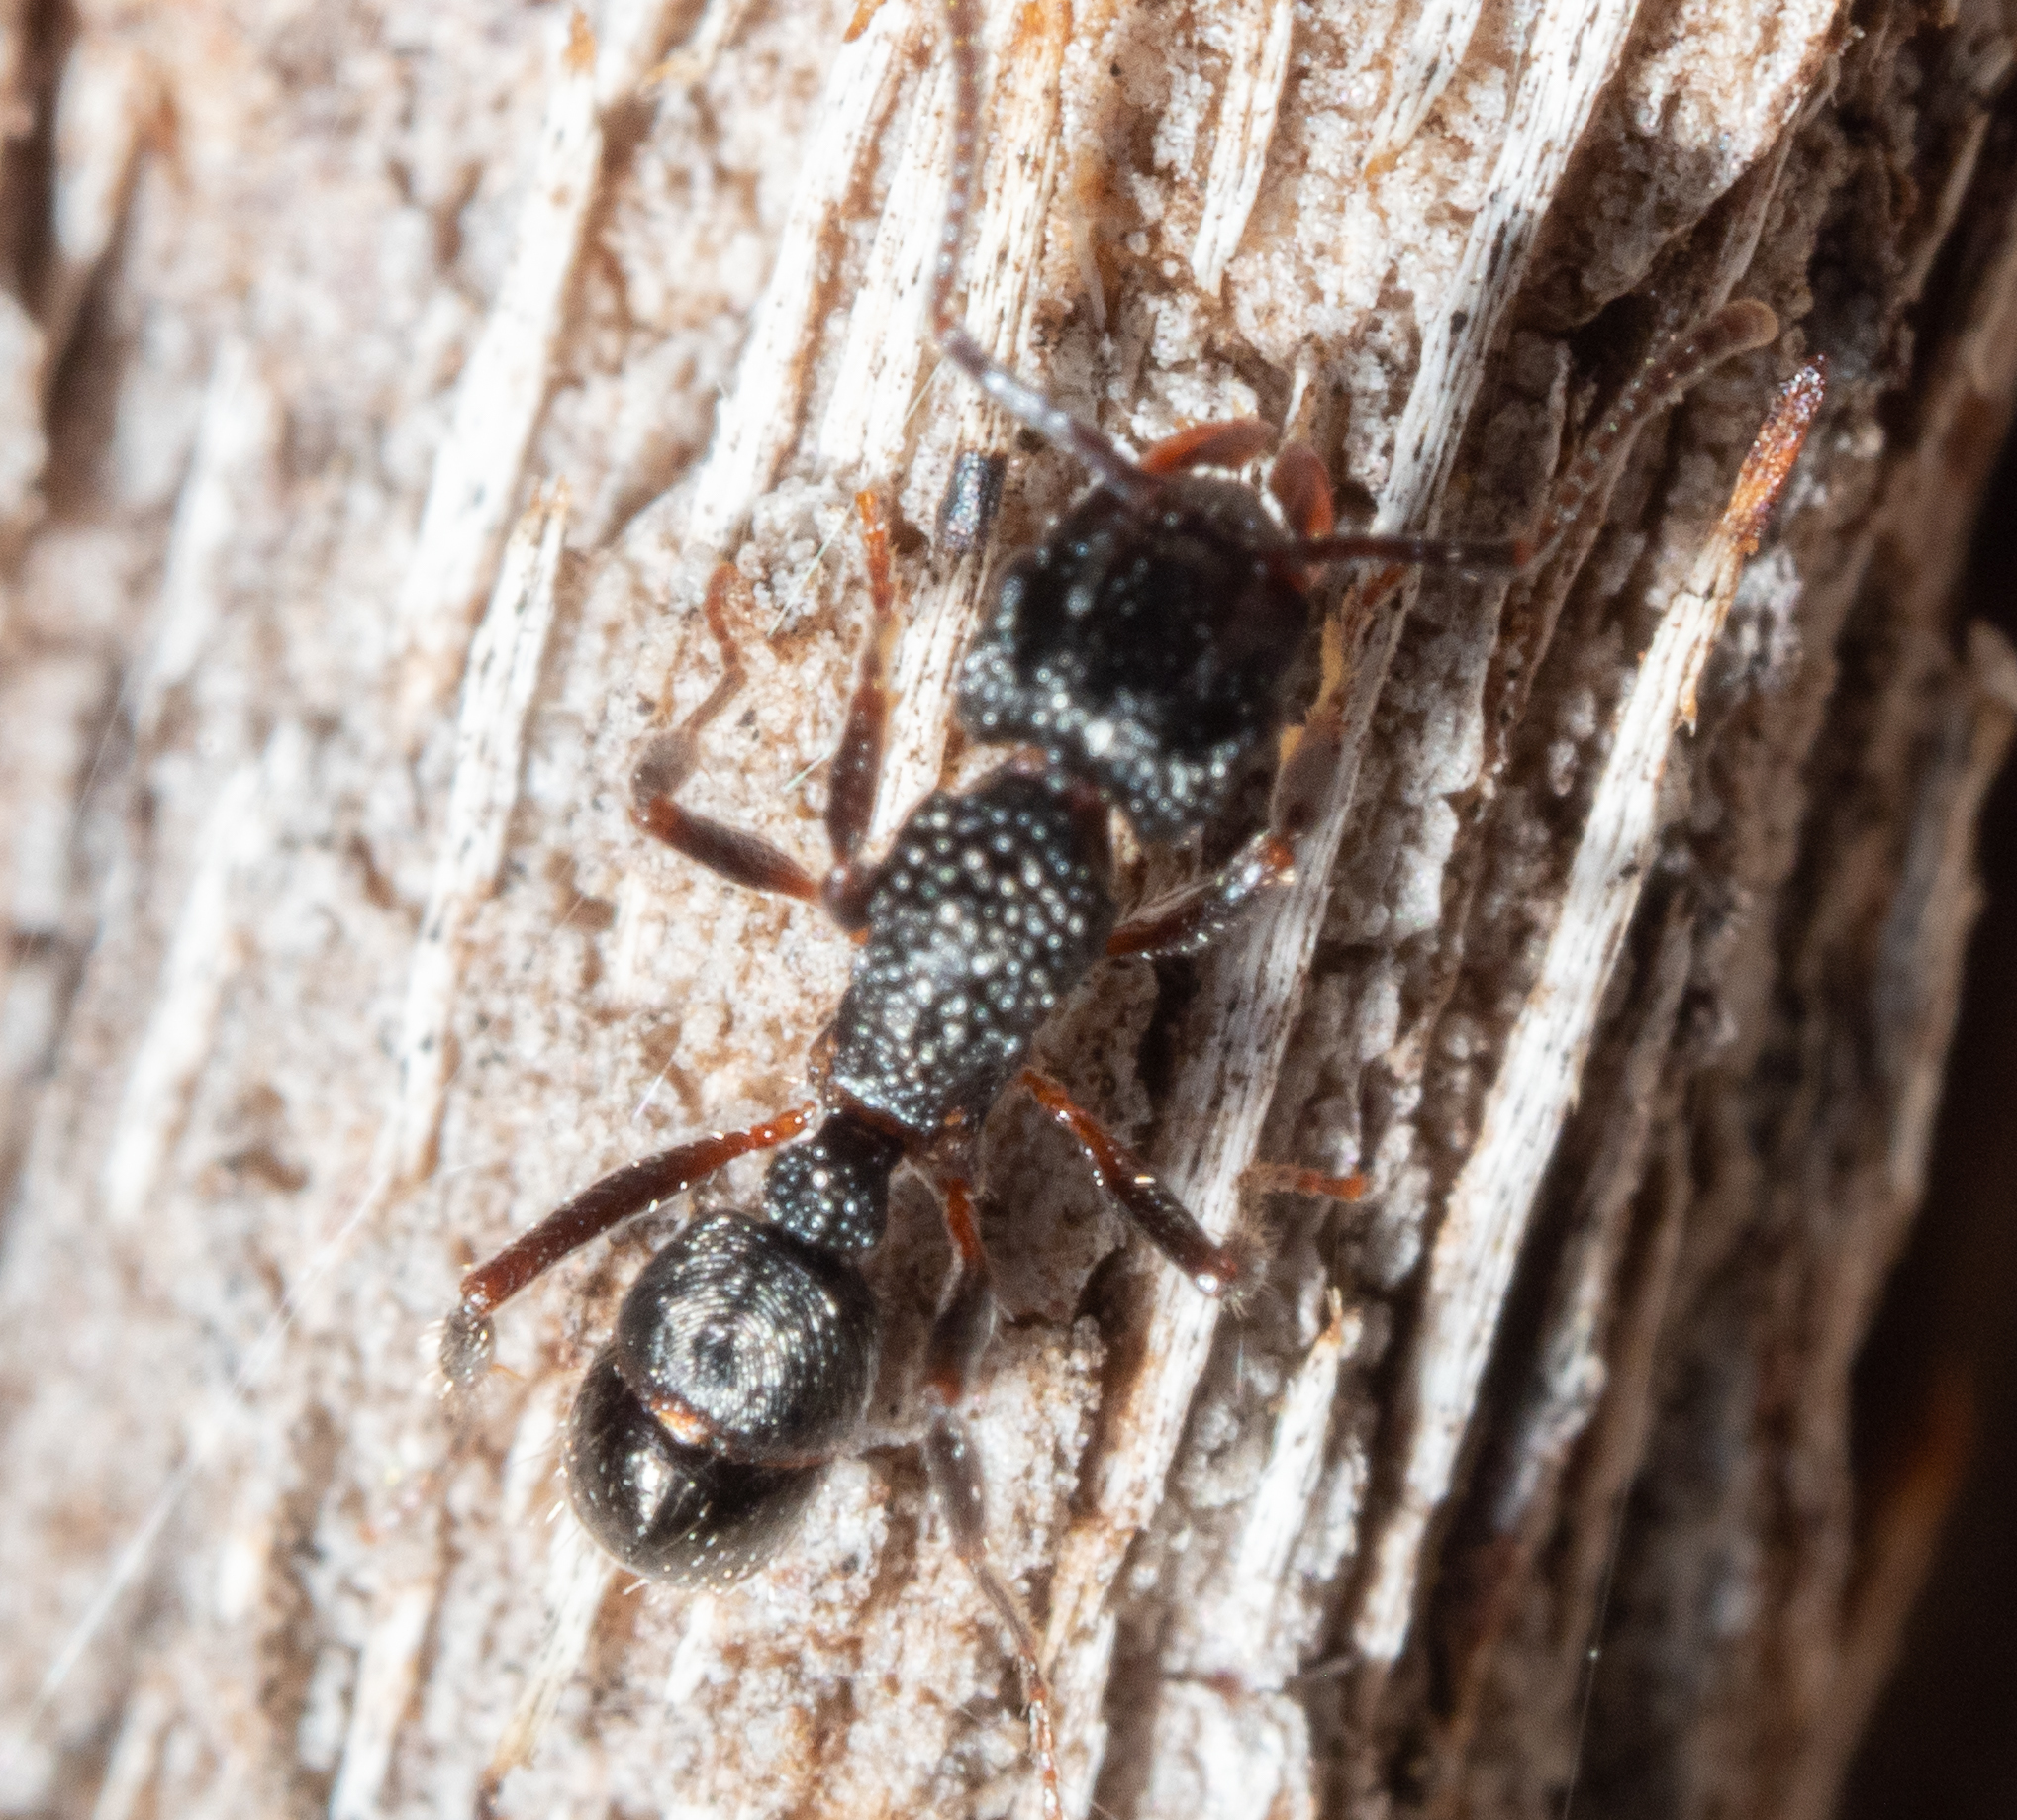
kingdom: Animalia
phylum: Arthropoda
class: Insecta
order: Hymenoptera
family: Formicidae
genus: Rhytidoponera
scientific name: Rhytidoponera victoriae
